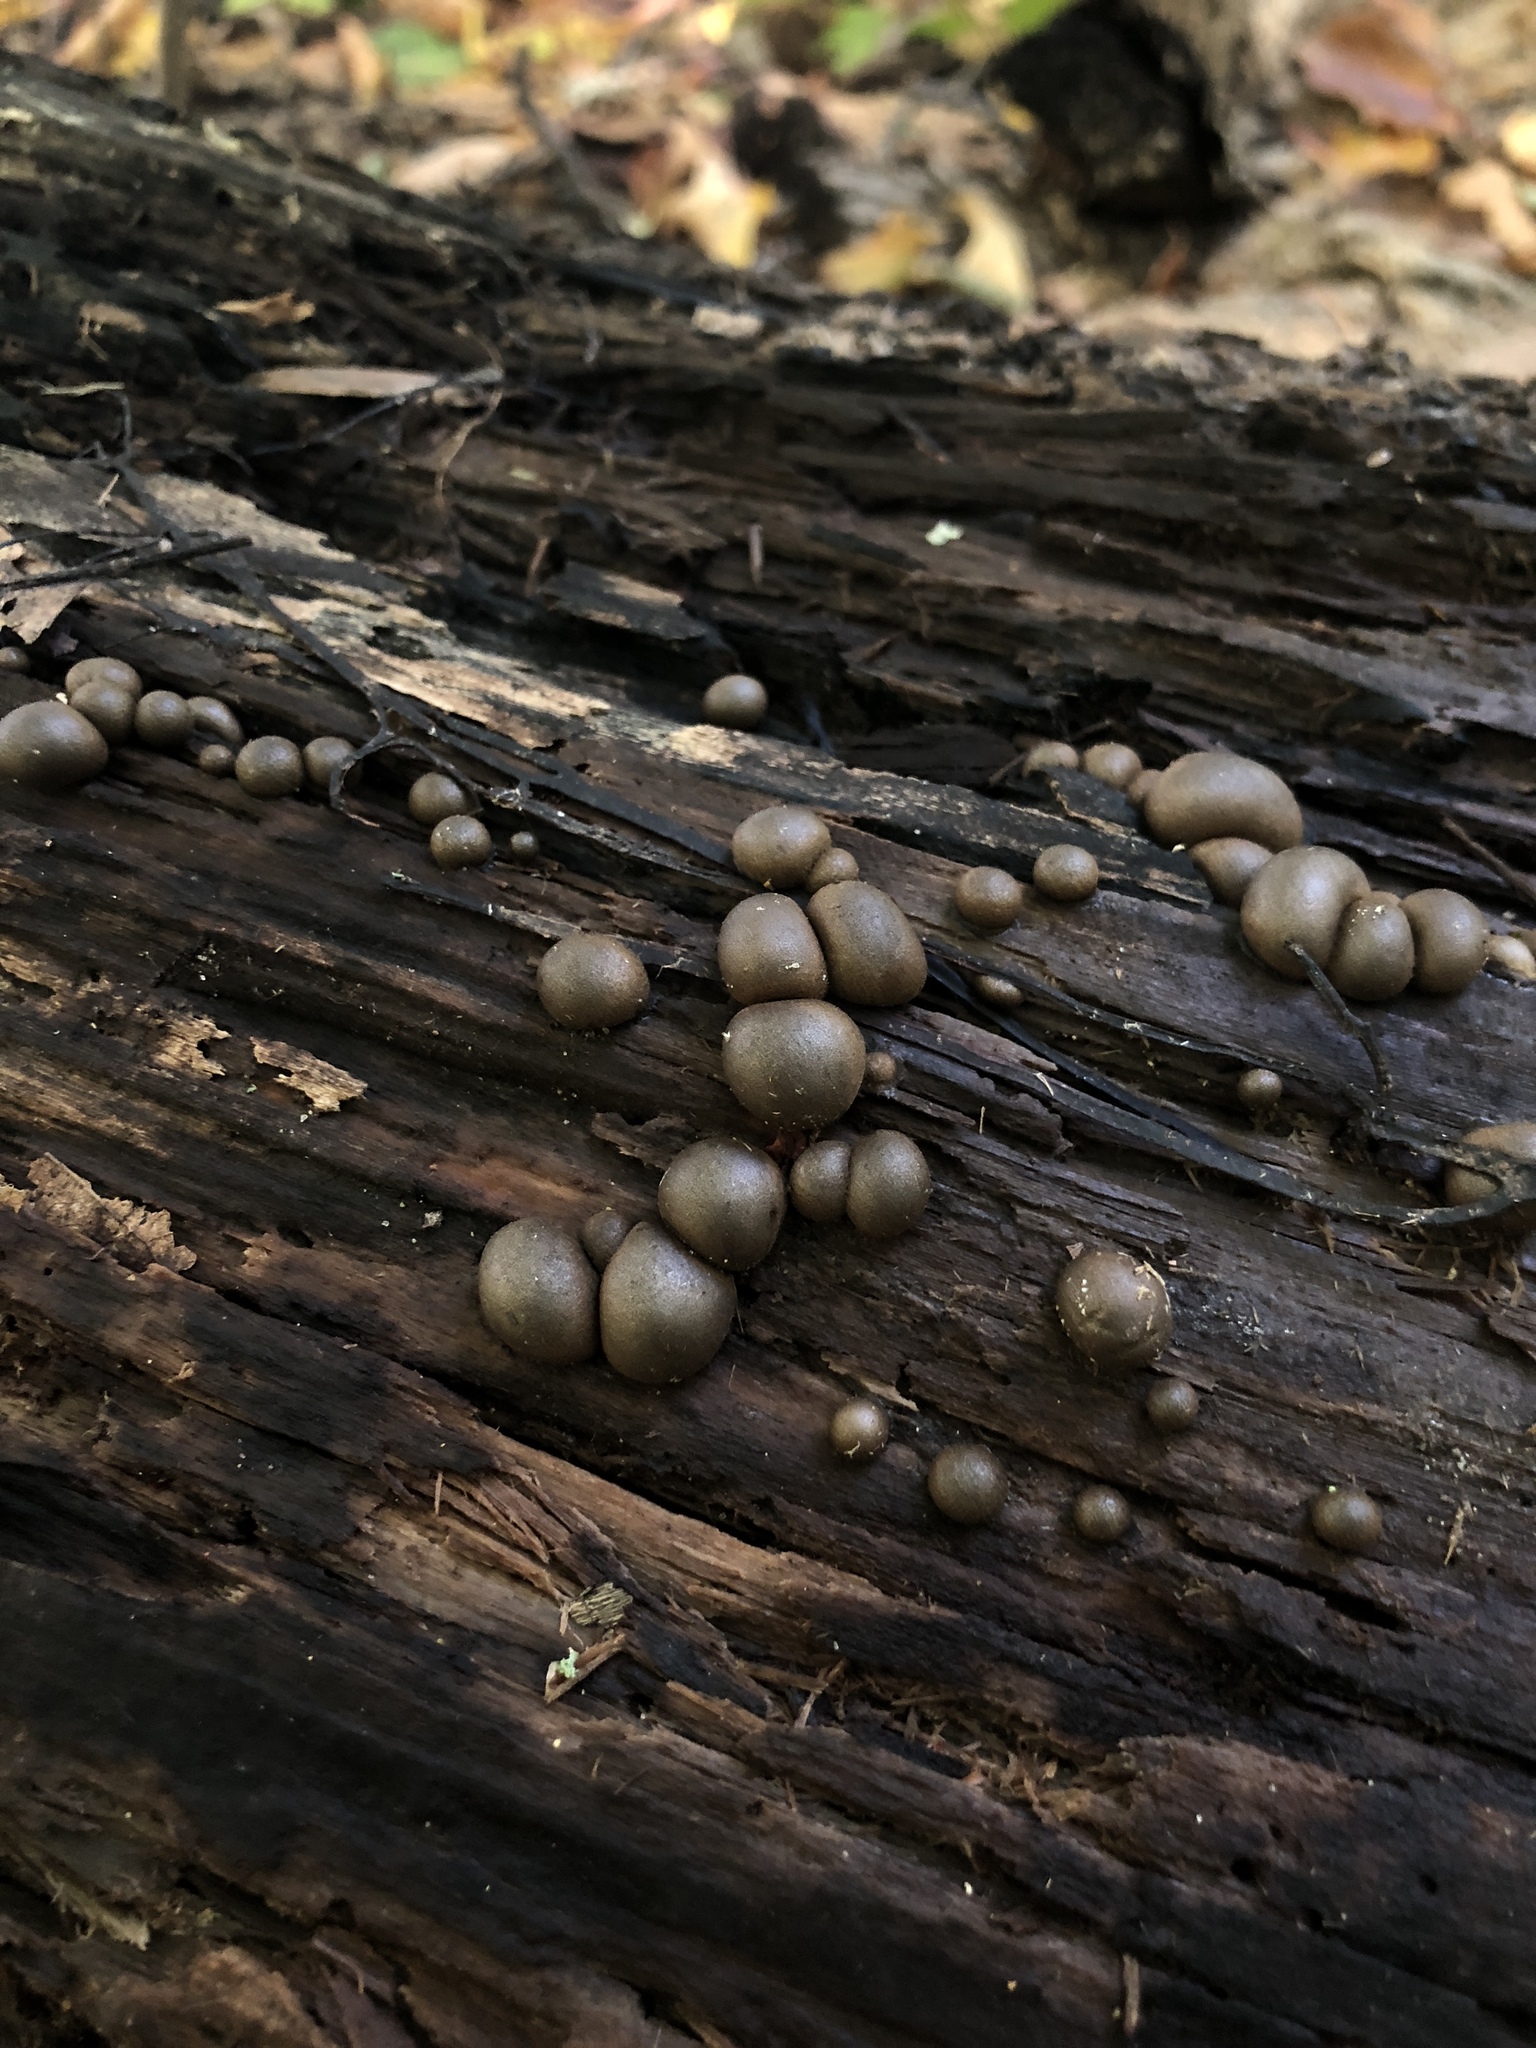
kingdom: Protozoa
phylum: Mycetozoa
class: Myxomycetes
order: Cribrariales
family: Tubiferaceae
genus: Lycogala
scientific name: Lycogala epidendrum
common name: Wolf's milk
